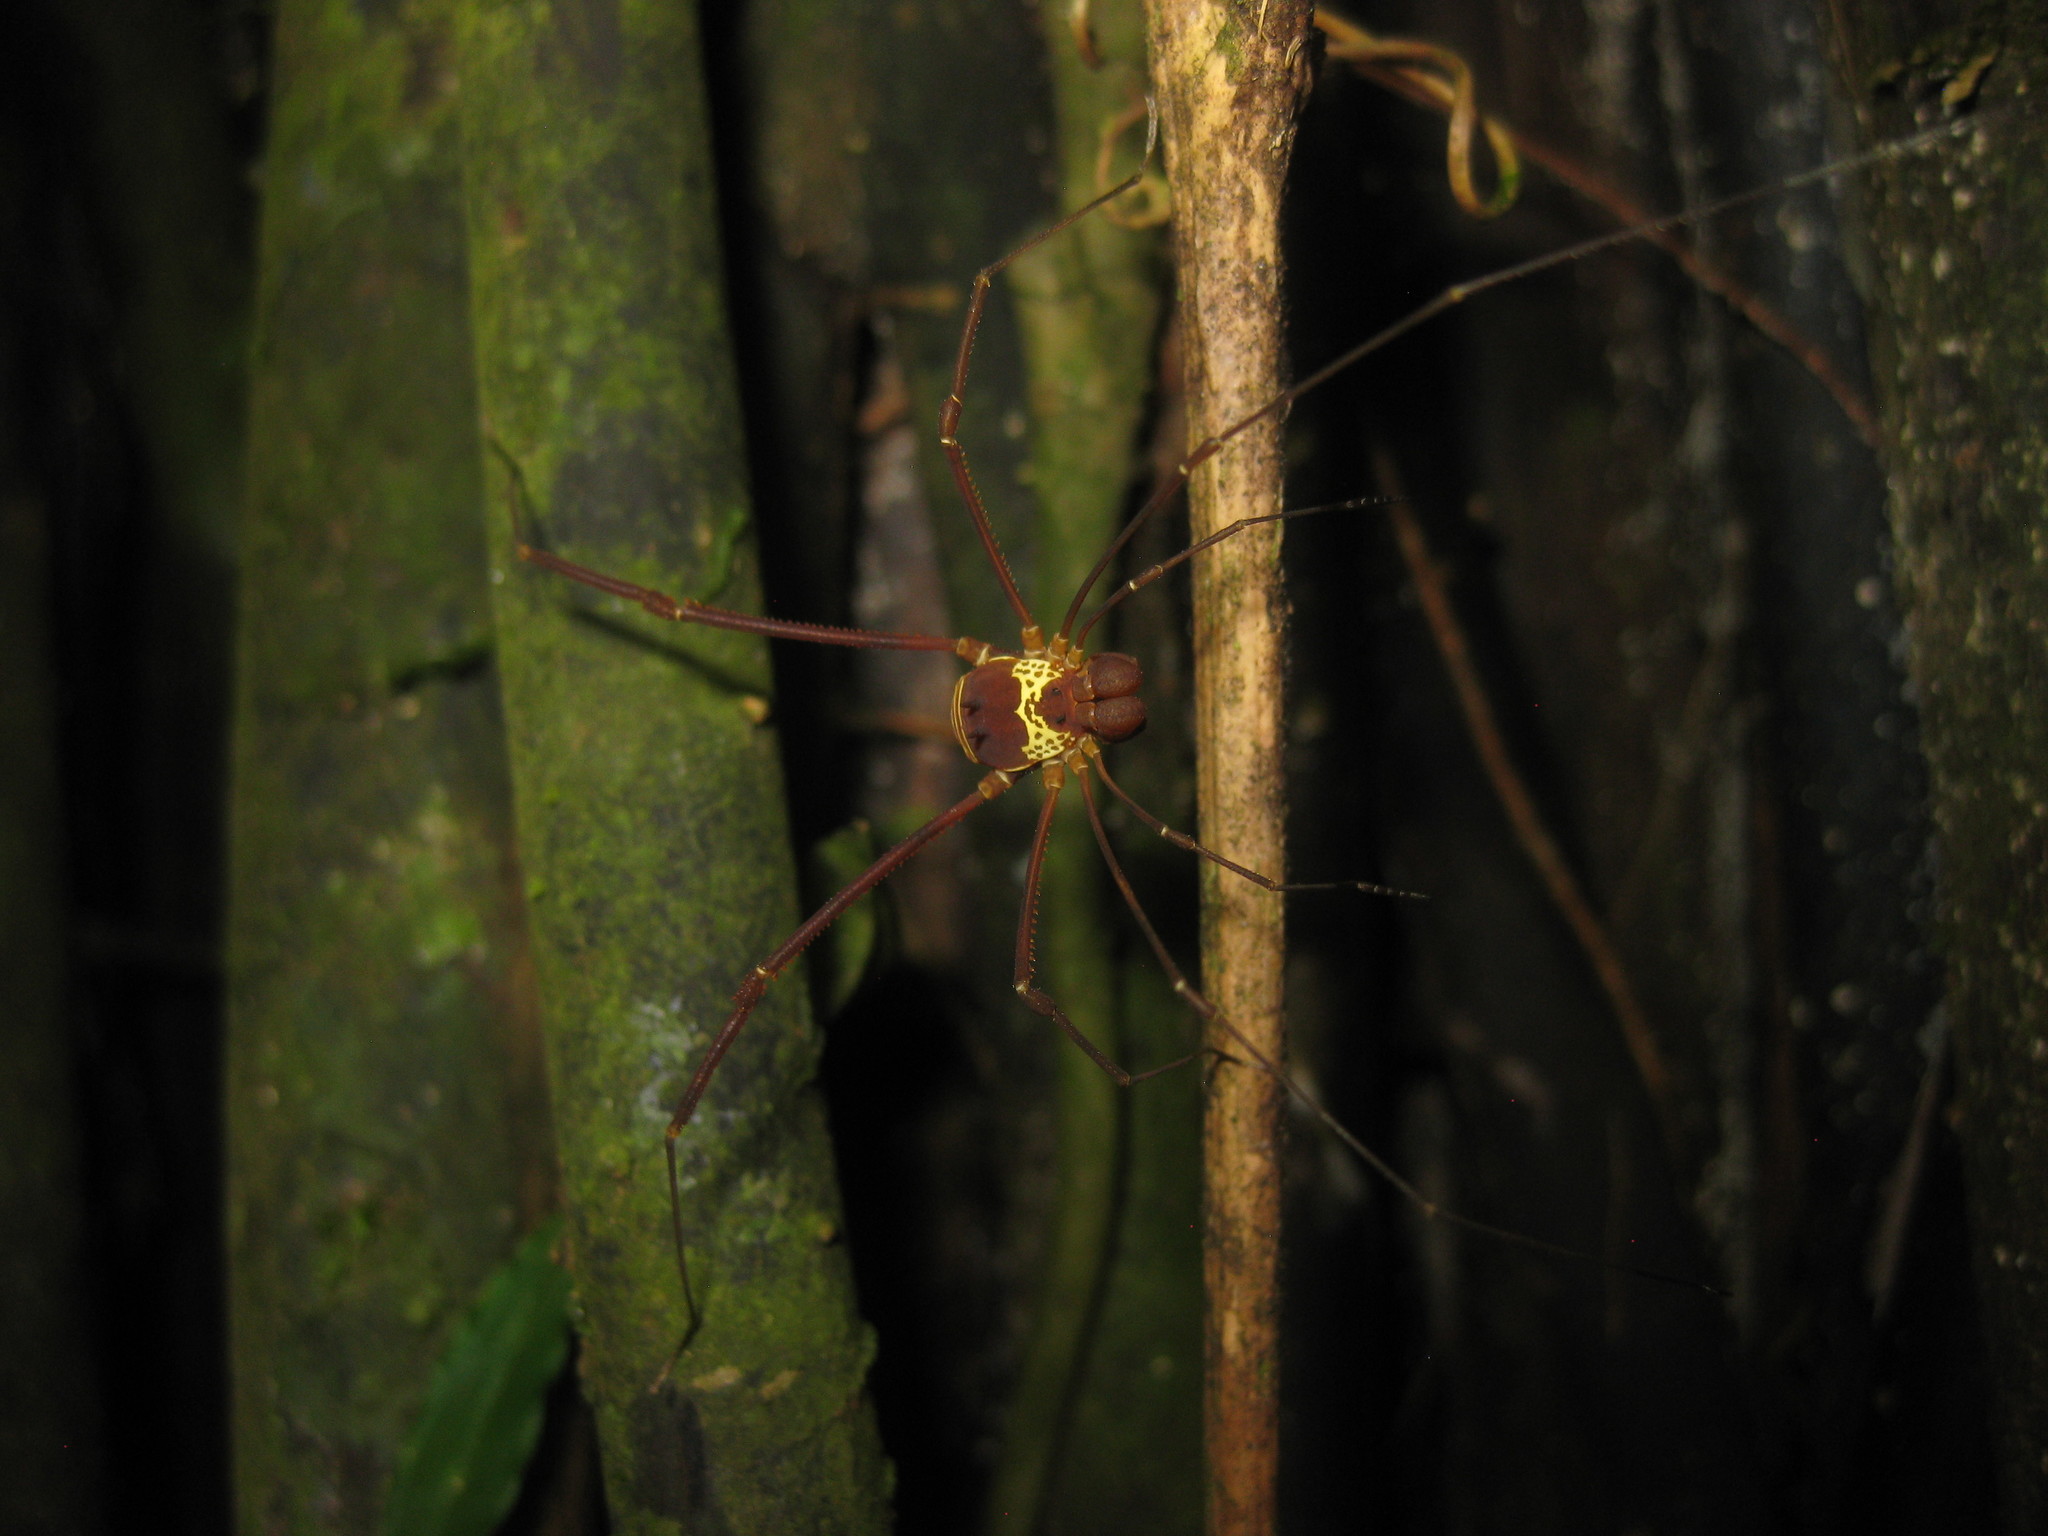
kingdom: Animalia
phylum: Arthropoda
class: Arachnida
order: Opiliones
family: Cosmetidae
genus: Meterginus
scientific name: Meterginus serratus
